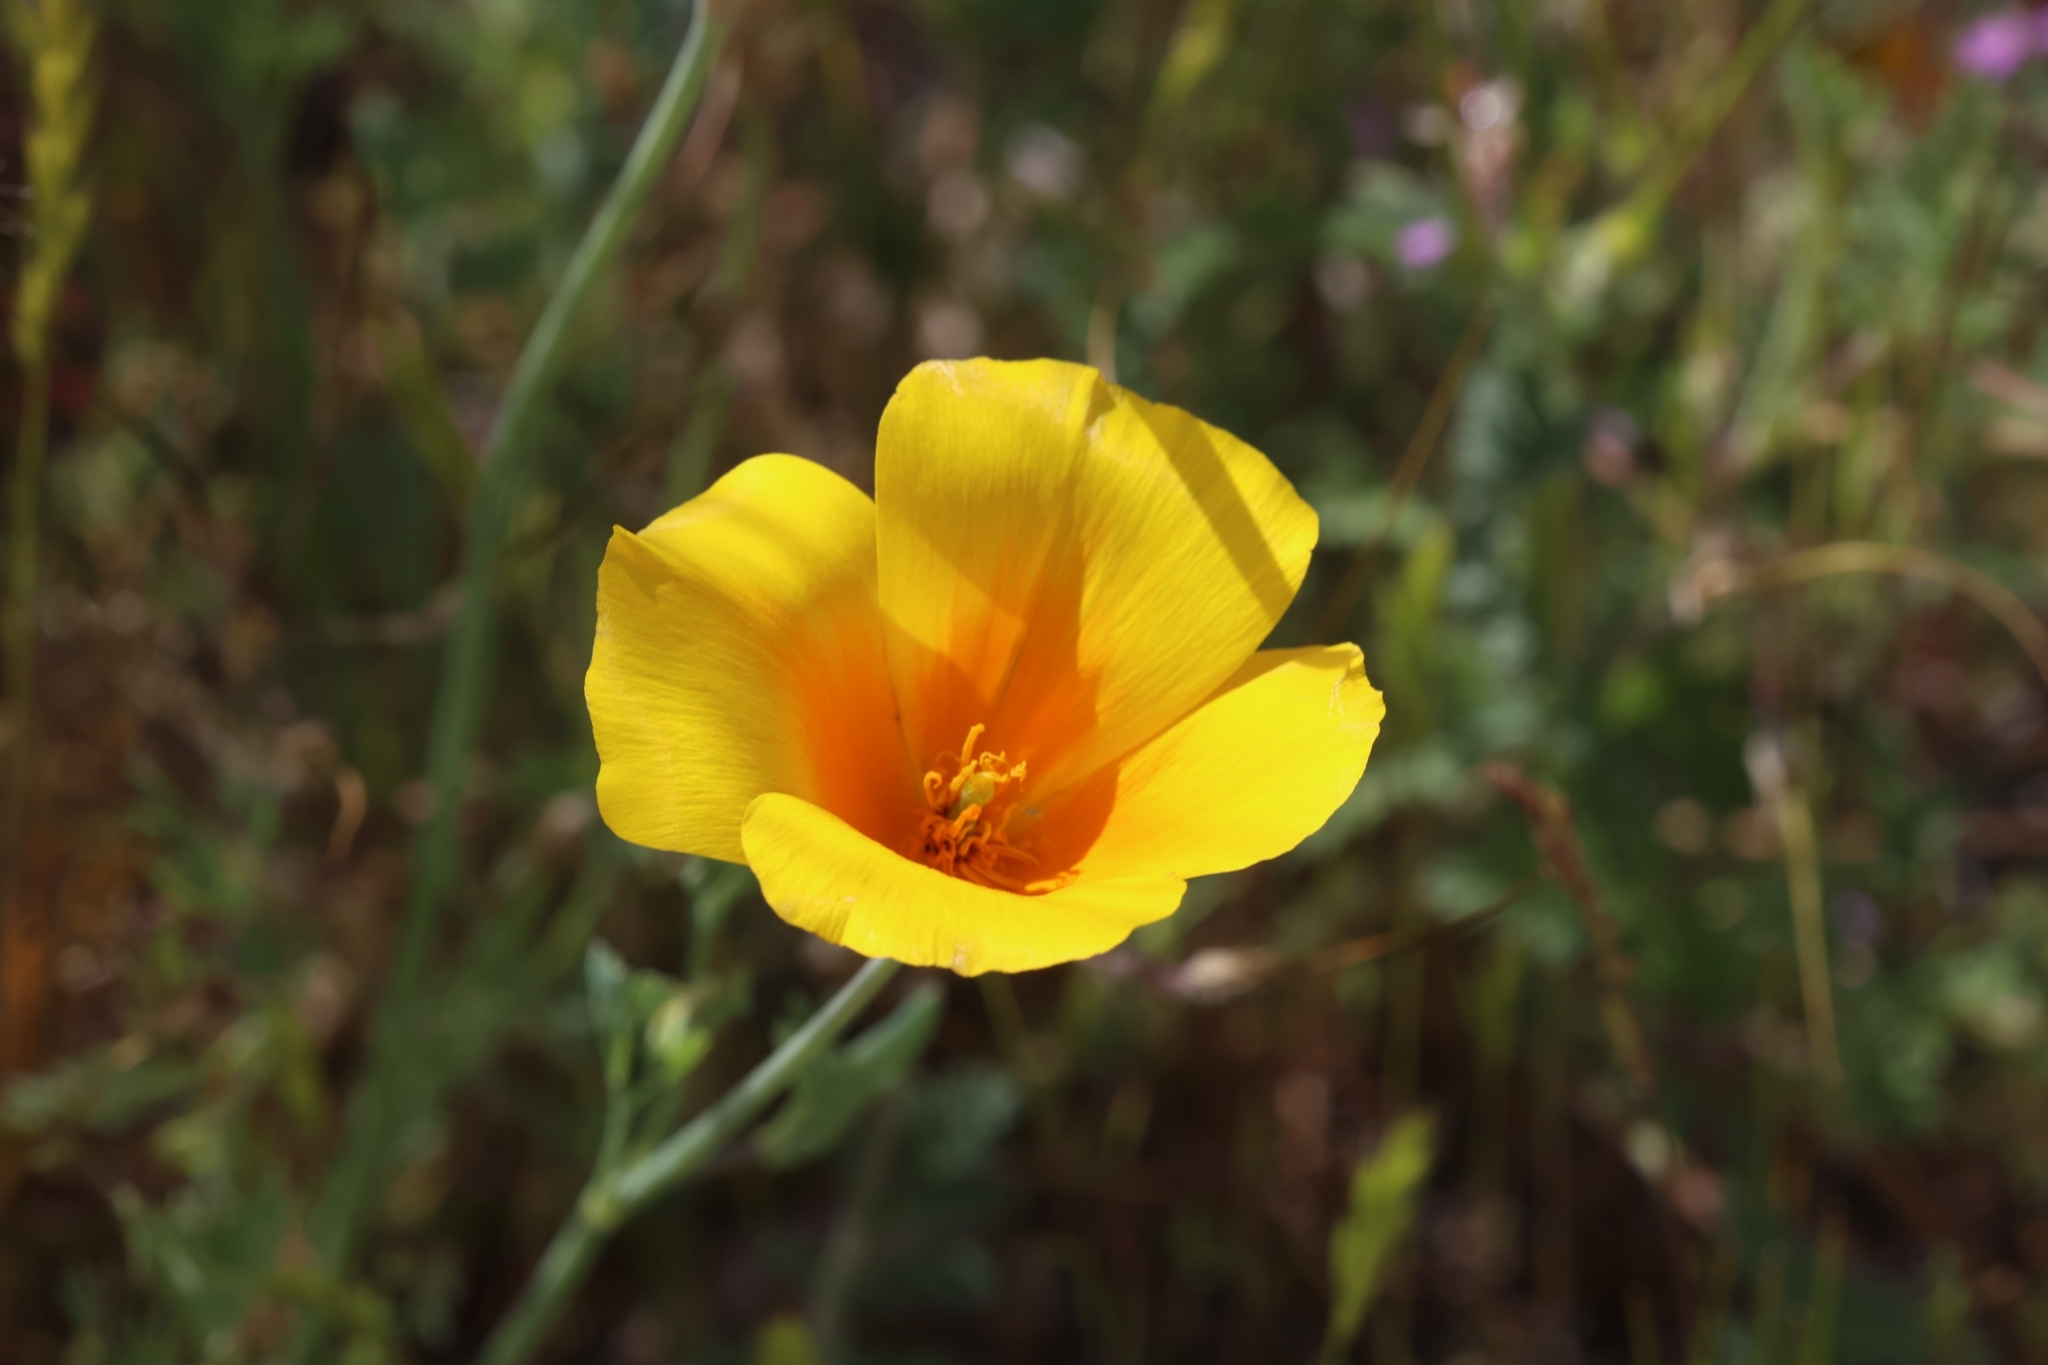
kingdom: Plantae
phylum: Tracheophyta
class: Magnoliopsida
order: Ranunculales
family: Papaveraceae
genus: Eschscholzia
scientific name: Eschscholzia californica
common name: California poppy
